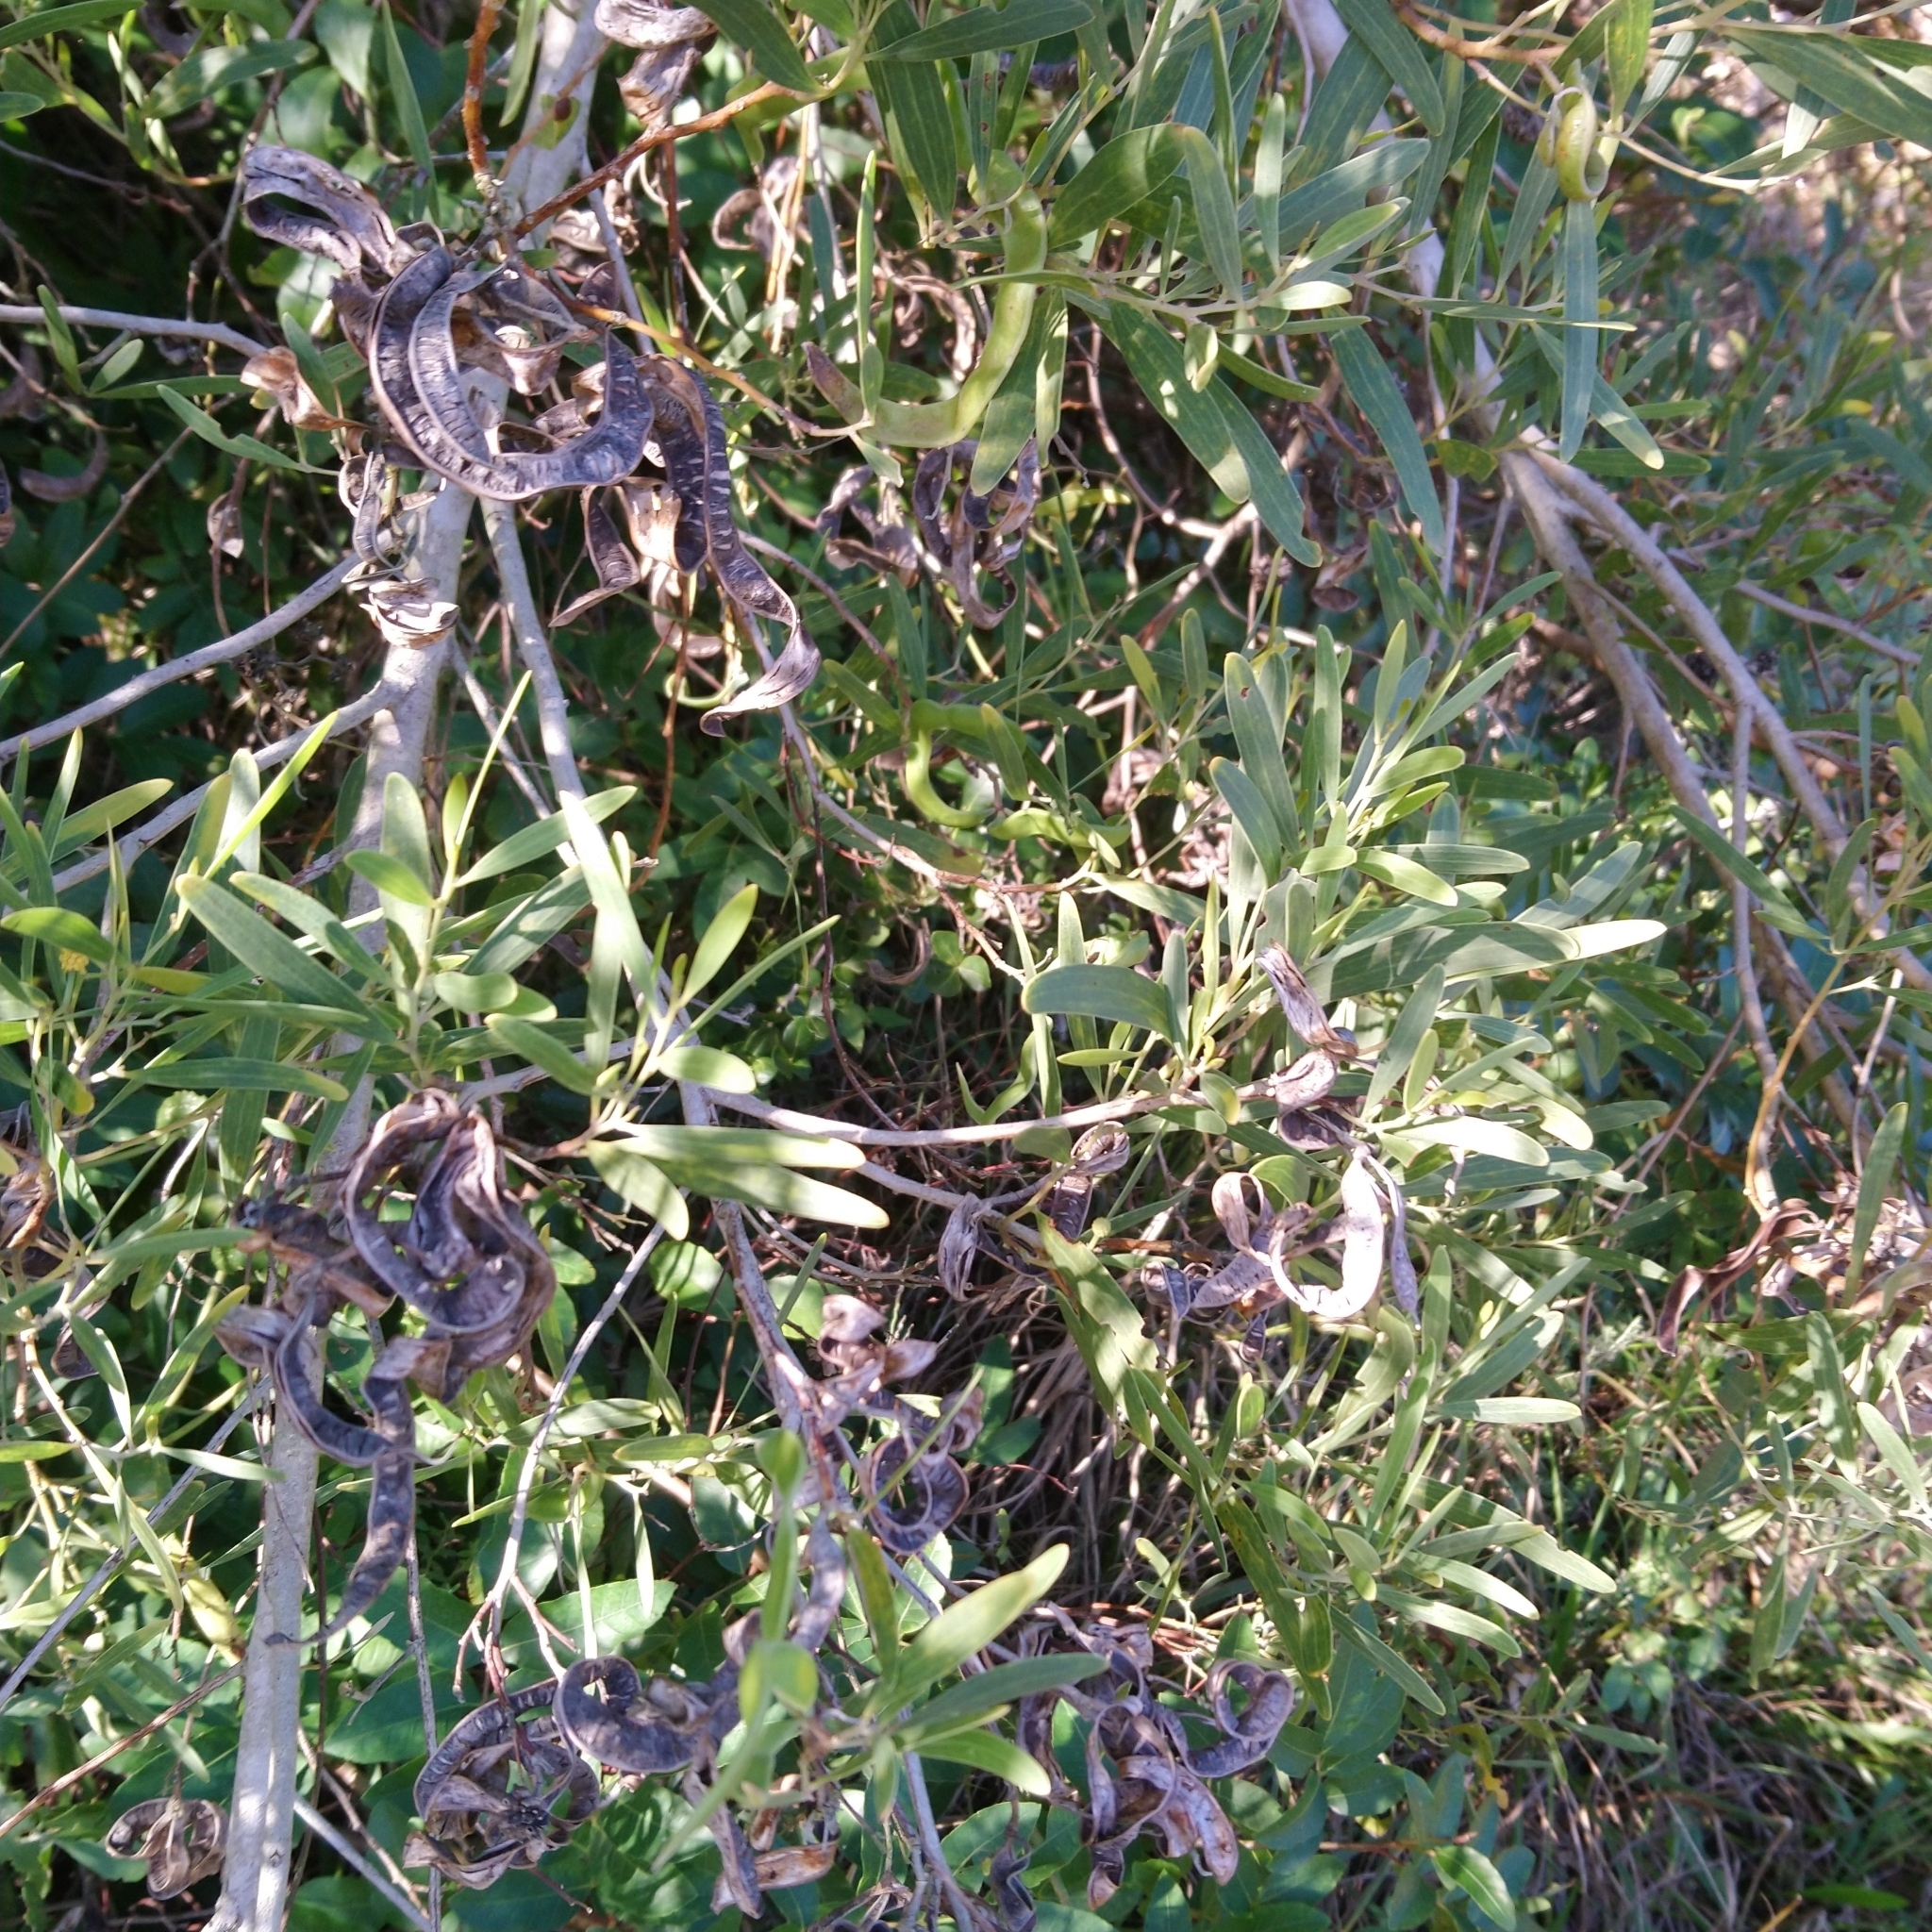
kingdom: Plantae
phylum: Tracheophyta
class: Magnoliopsida
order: Fabales
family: Fabaceae
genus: Acacia
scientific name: Acacia cyclops
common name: Coastal wattle
